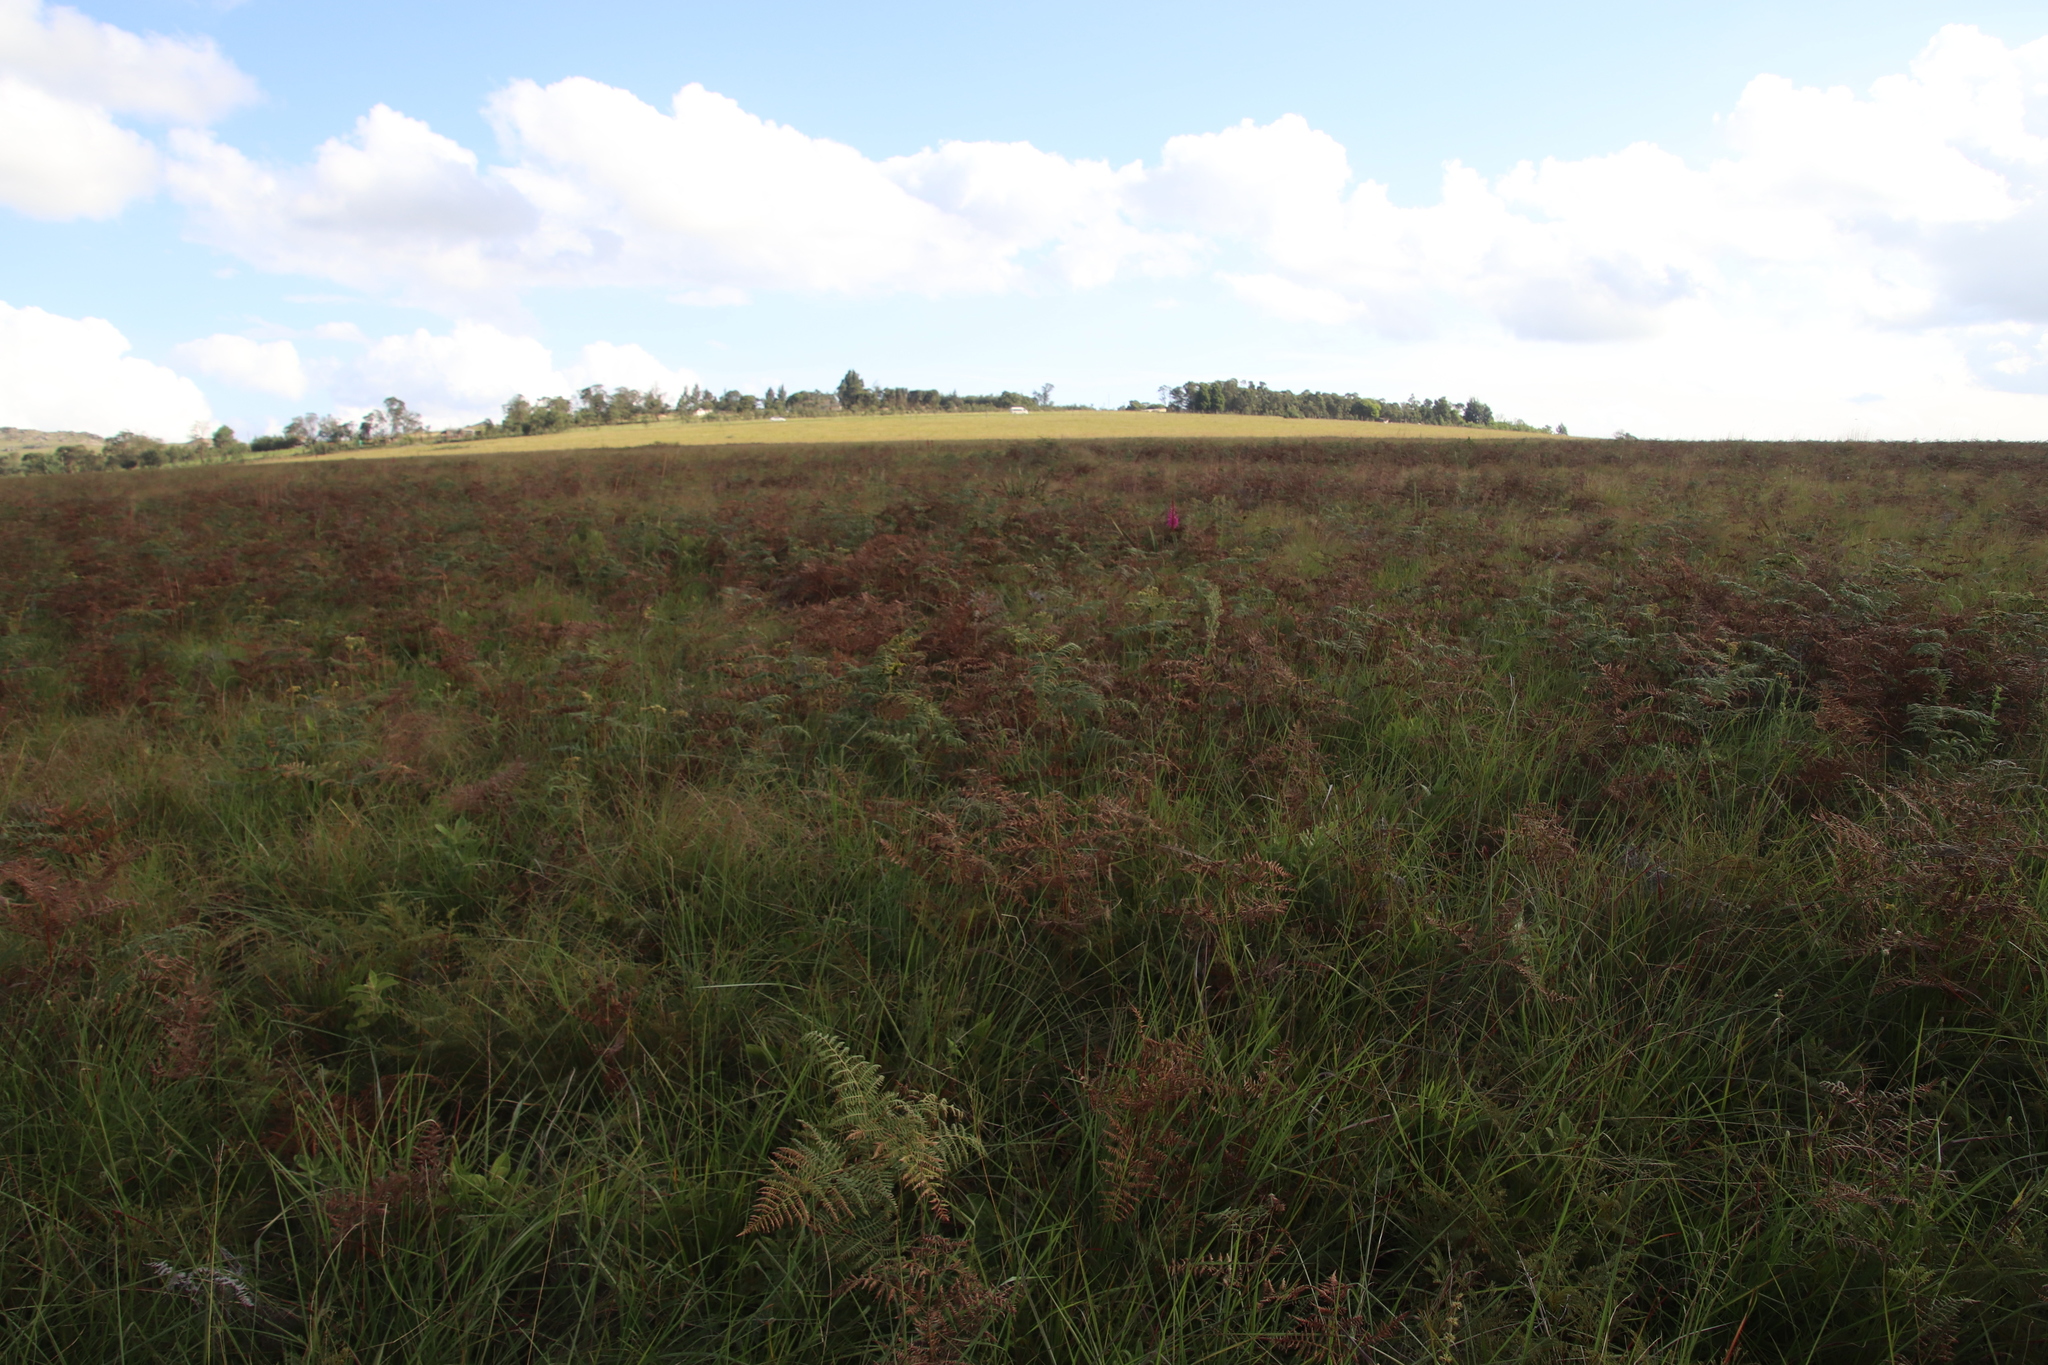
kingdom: Plantae
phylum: Tracheophyta
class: Polypodiopsida
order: Polypodiales
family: Dennstaedtiaceae
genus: Pteridium
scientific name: Pteridium aquilinum
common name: Bracken
